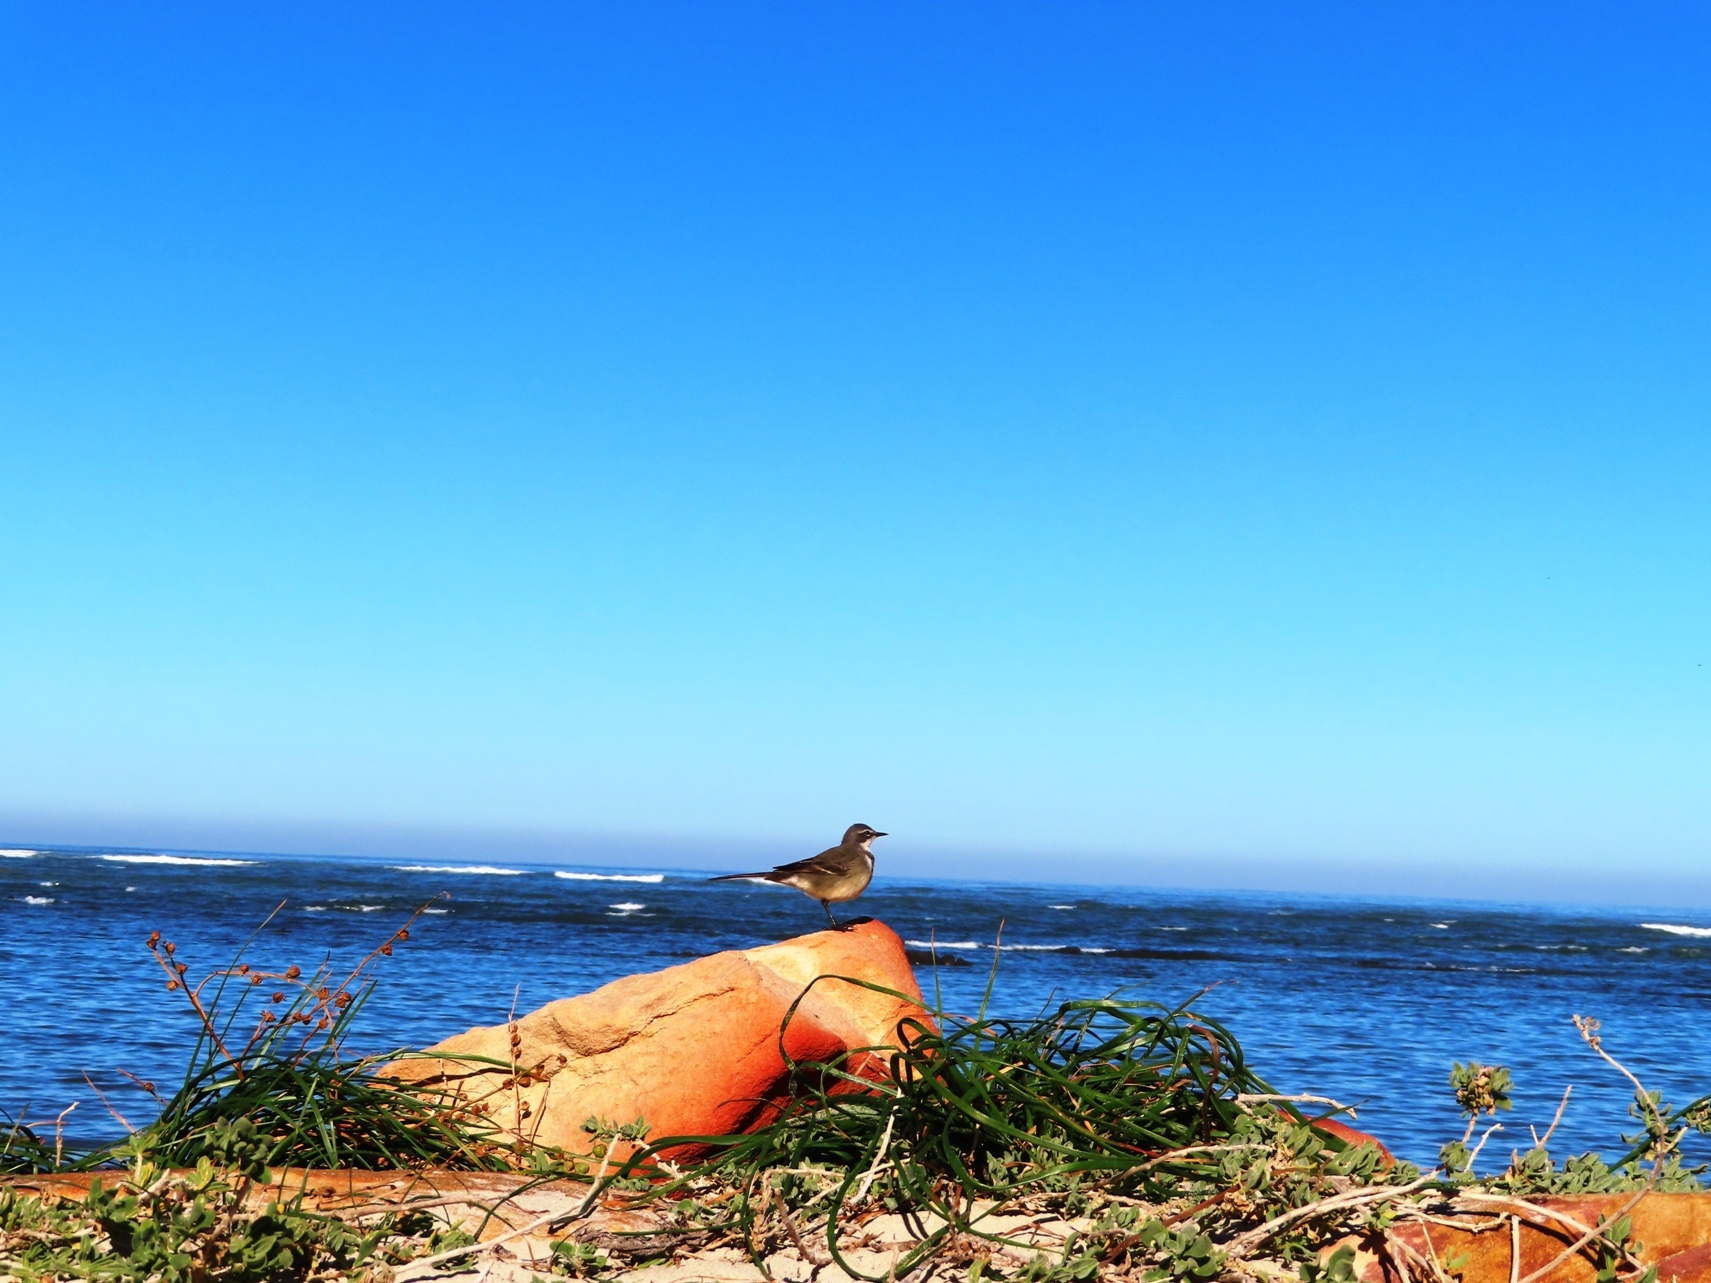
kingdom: Animalia
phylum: Chordata
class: Aves
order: Passeriformes
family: Motacillidae
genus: Motacilla
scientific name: Motacilla capensis
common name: Cape wagtail
